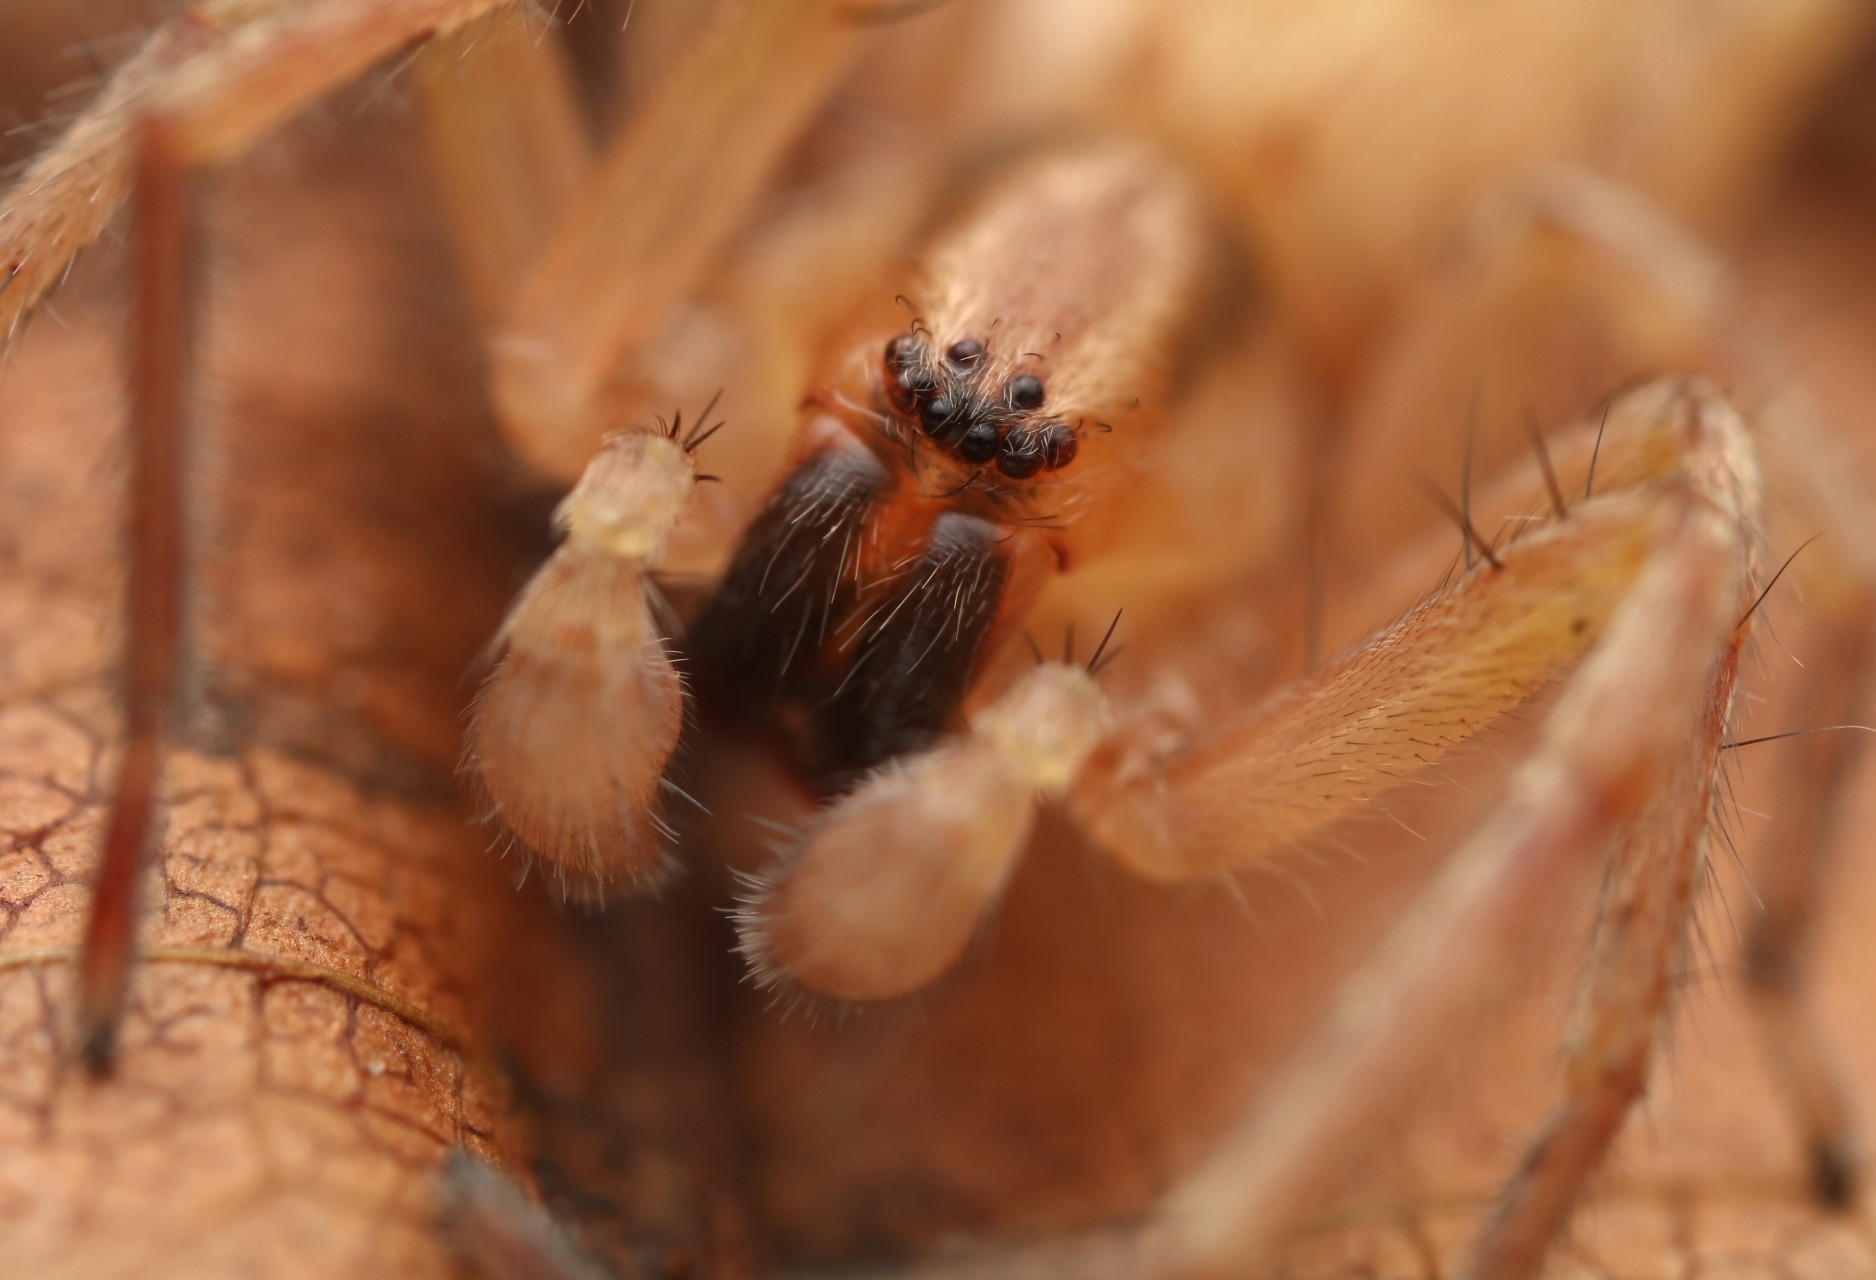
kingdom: Animalia
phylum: Arthropoda
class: Arachnida
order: Araneae
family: Anyphaenidae
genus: Hibana
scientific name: Hibana gracilis
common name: Garden ghost spider
